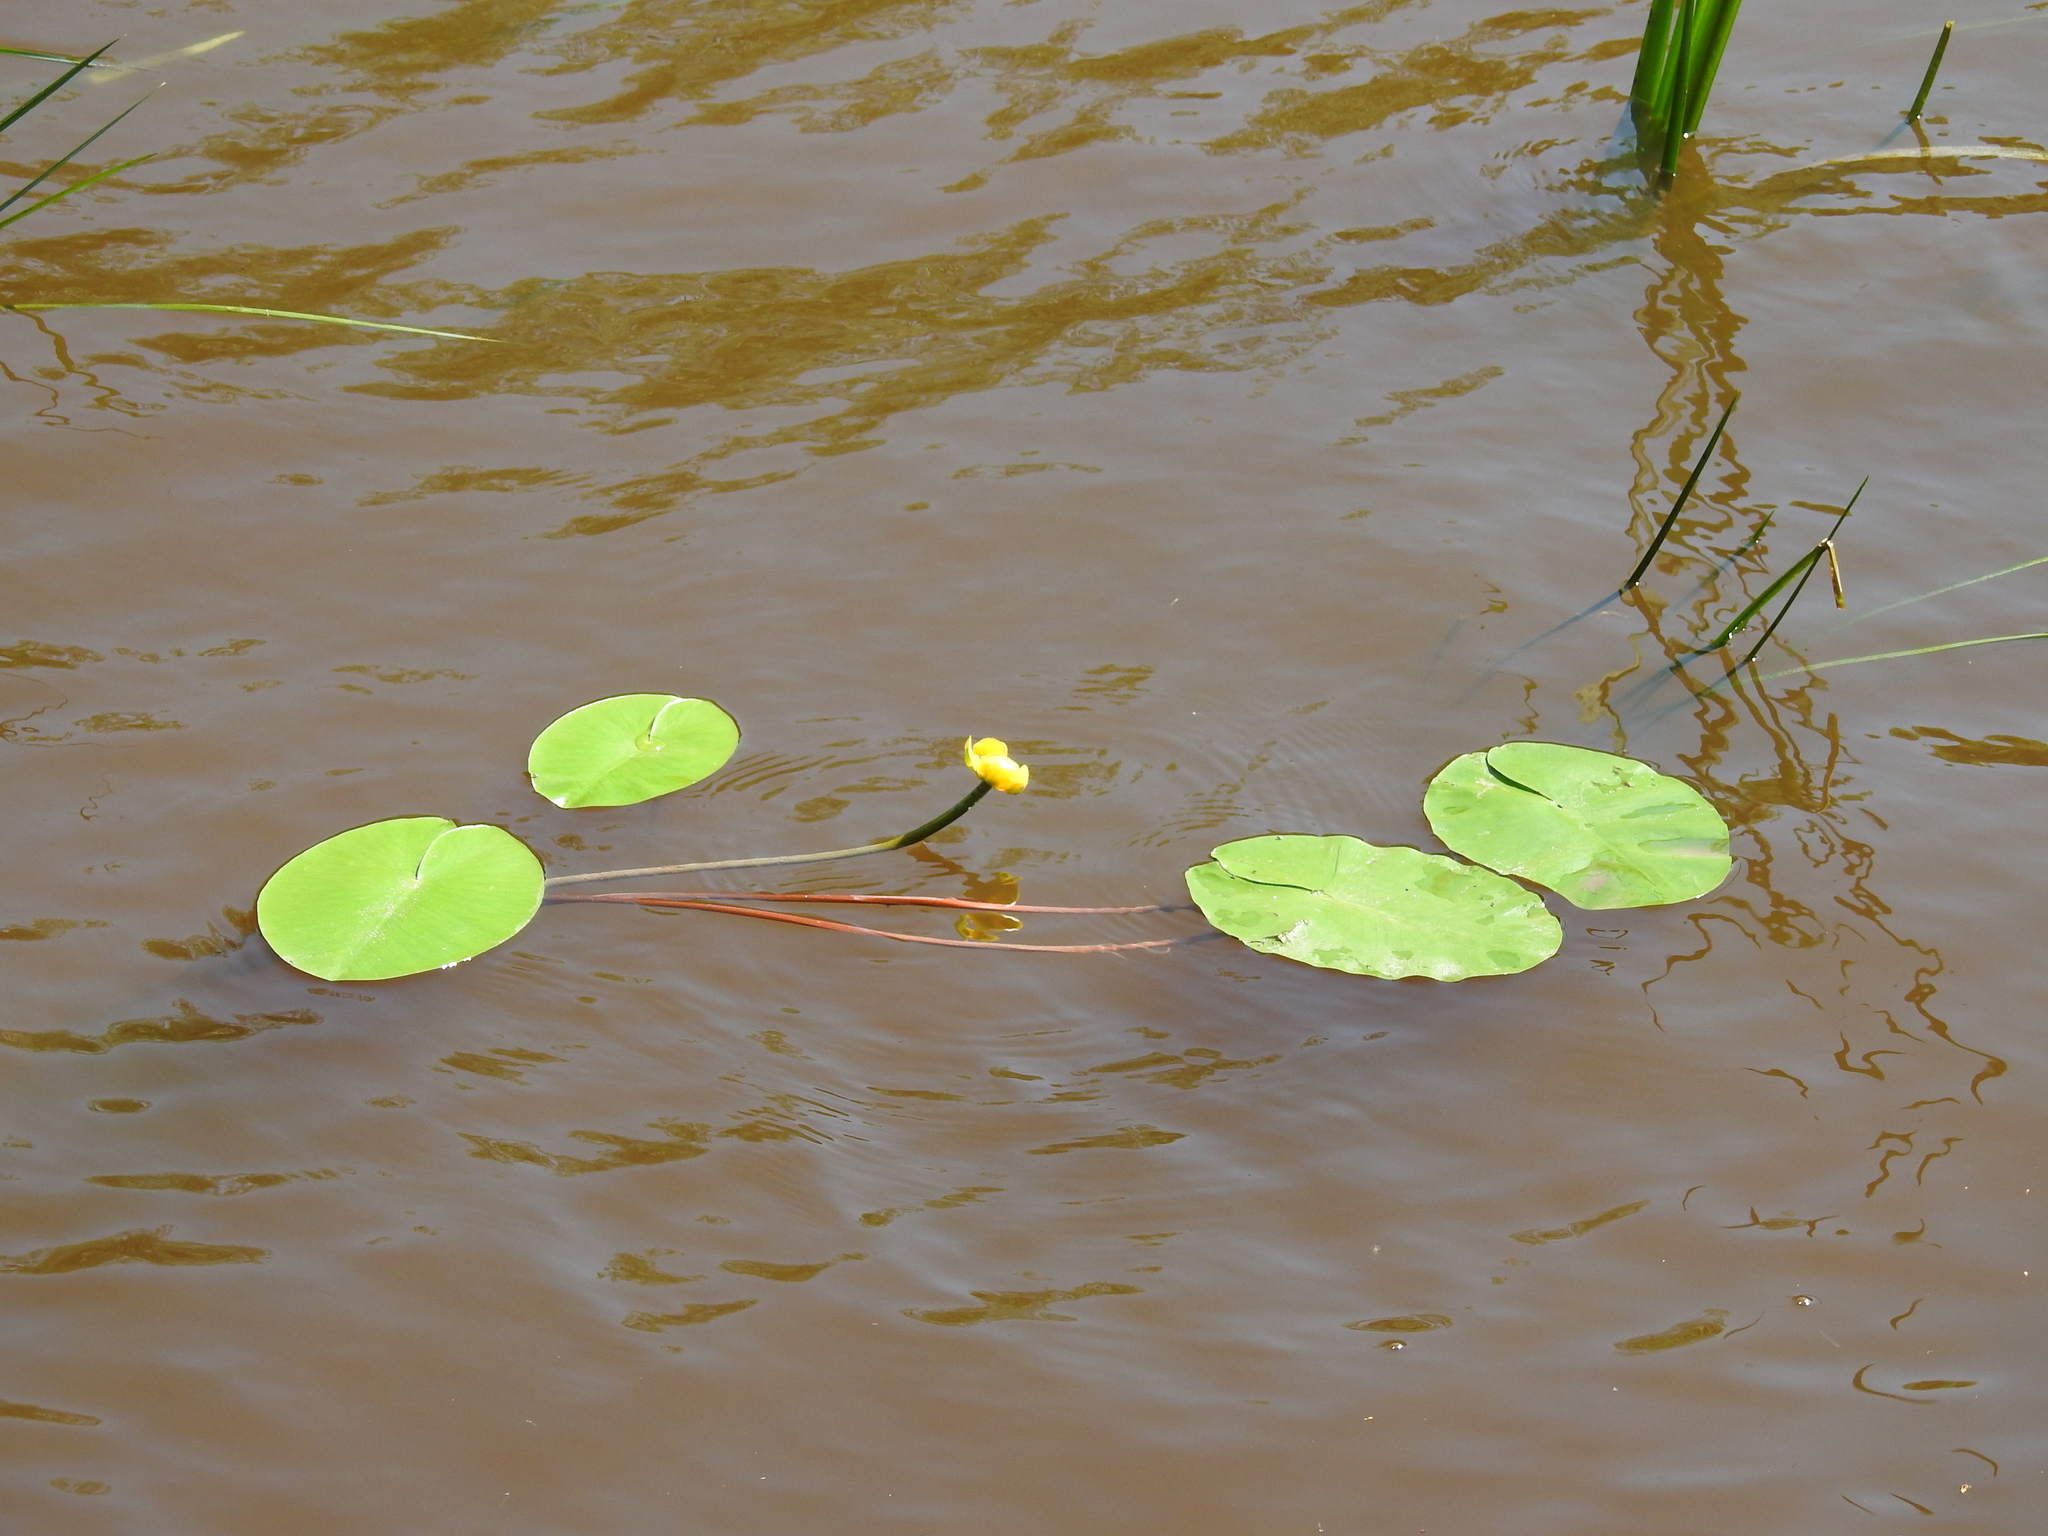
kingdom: Plantae
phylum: Tracheophyta
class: Magnoliopsida
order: Nymphaeales
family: Nymphaeaceae
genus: Nuphar
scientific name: Nuphar lutea
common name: Yellow water-lily
